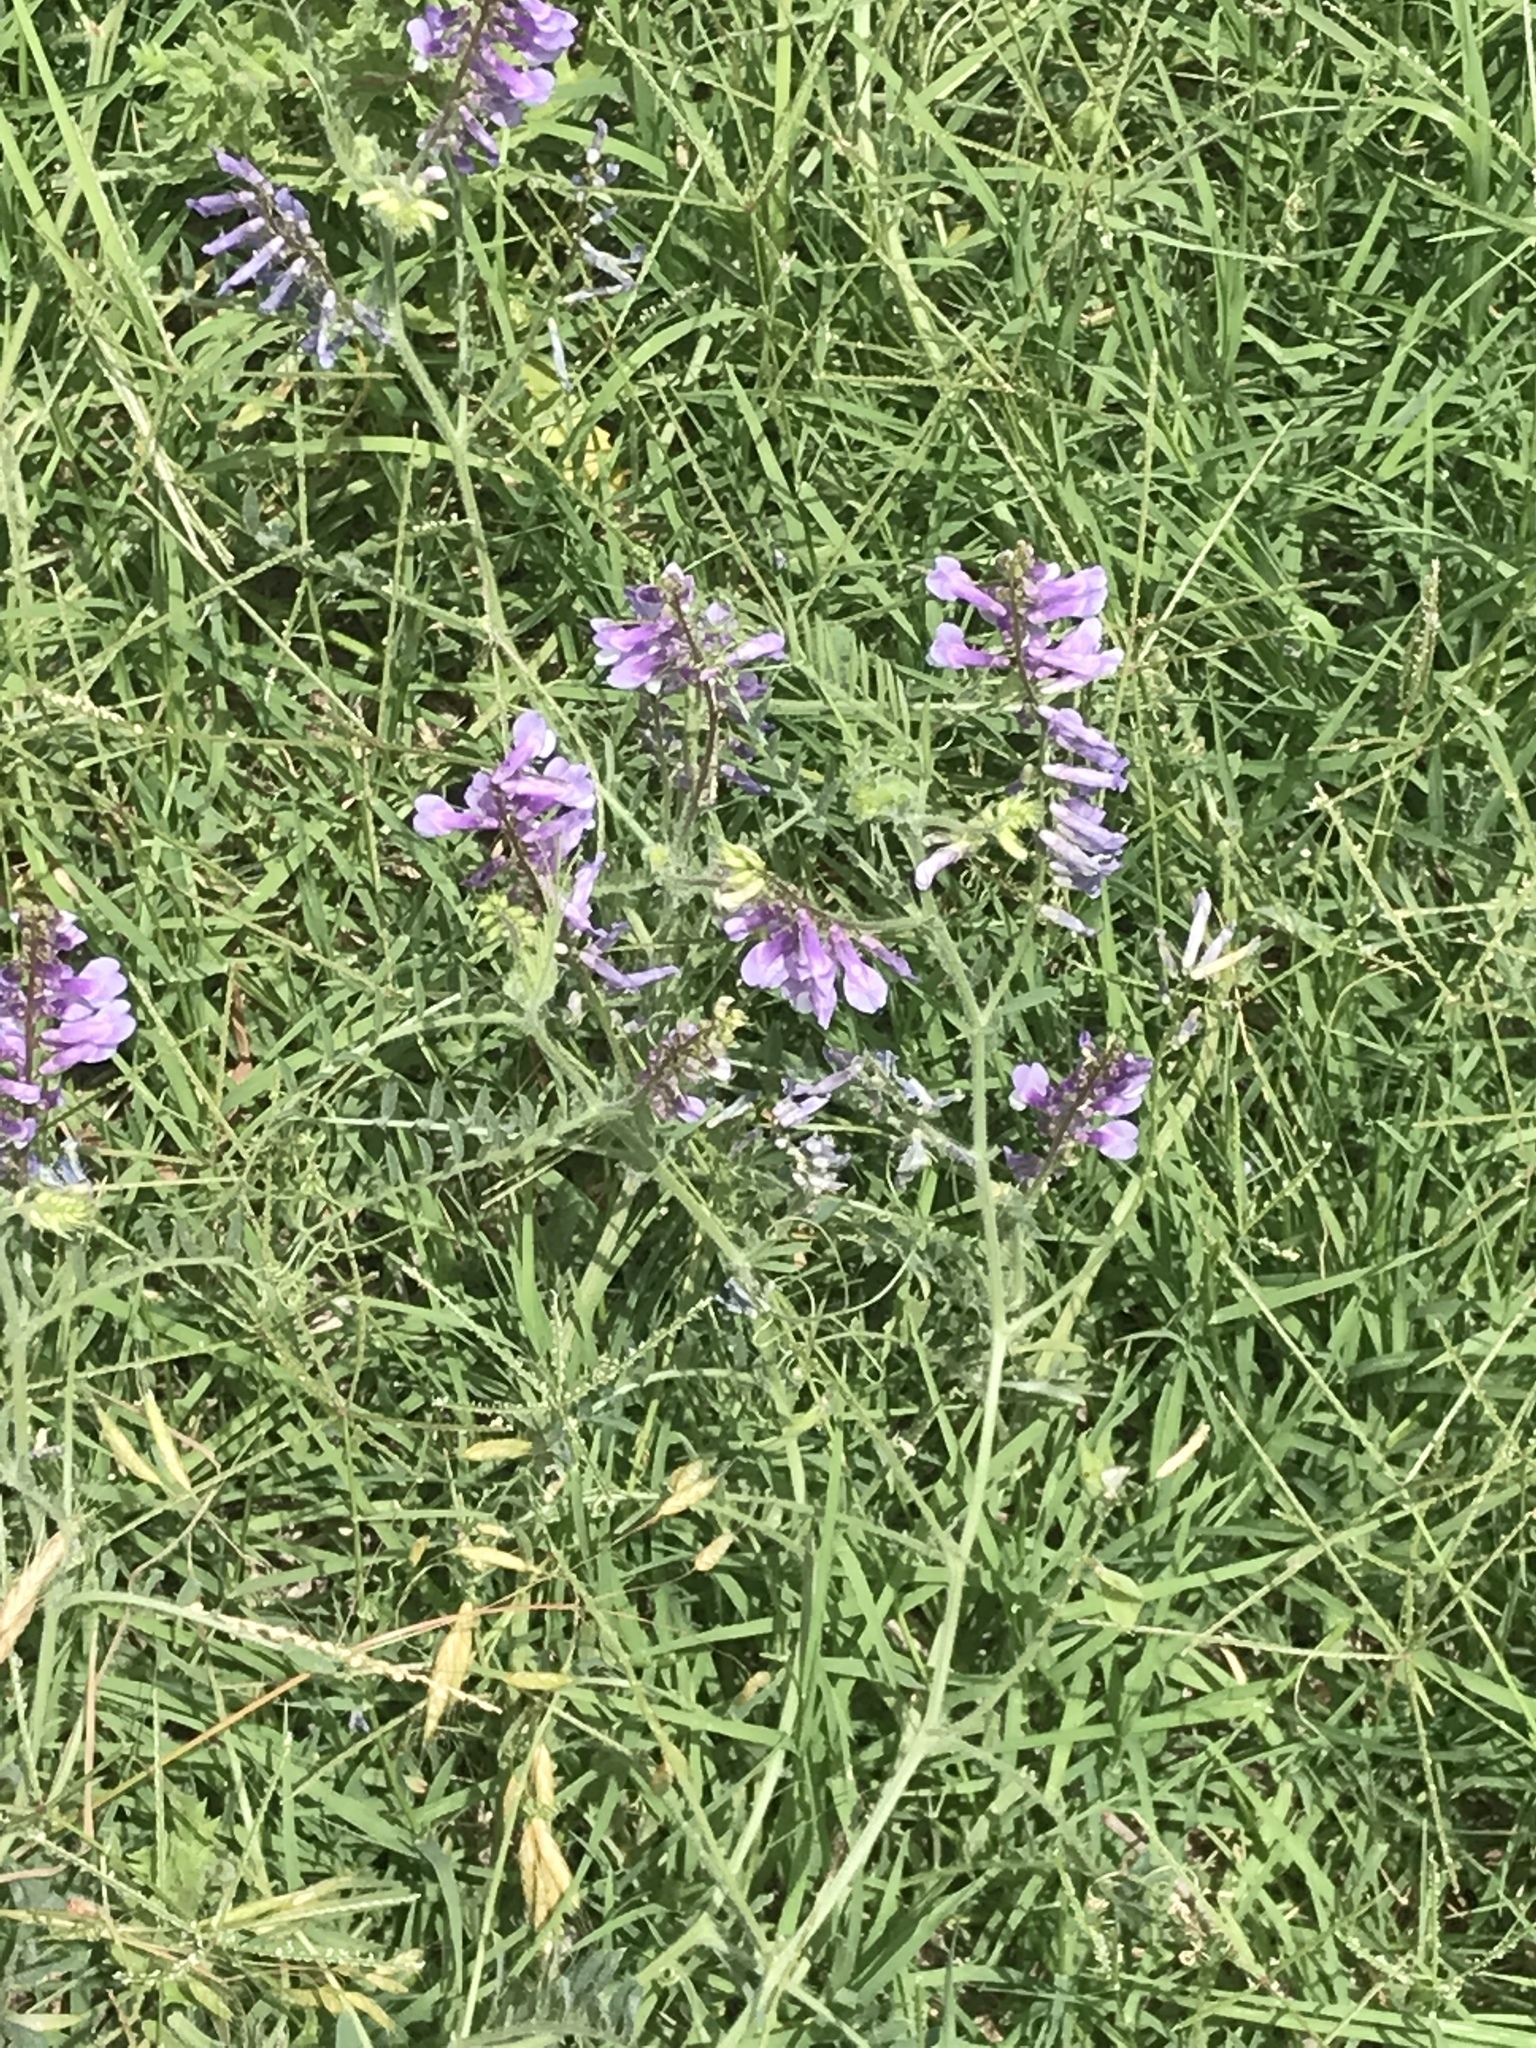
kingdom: Plantae
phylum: Tracheophyta
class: Magnoliopsida
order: Fabales
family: Fabaceae
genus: Vicia
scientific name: Vicia villosa
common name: Fodder vetch
